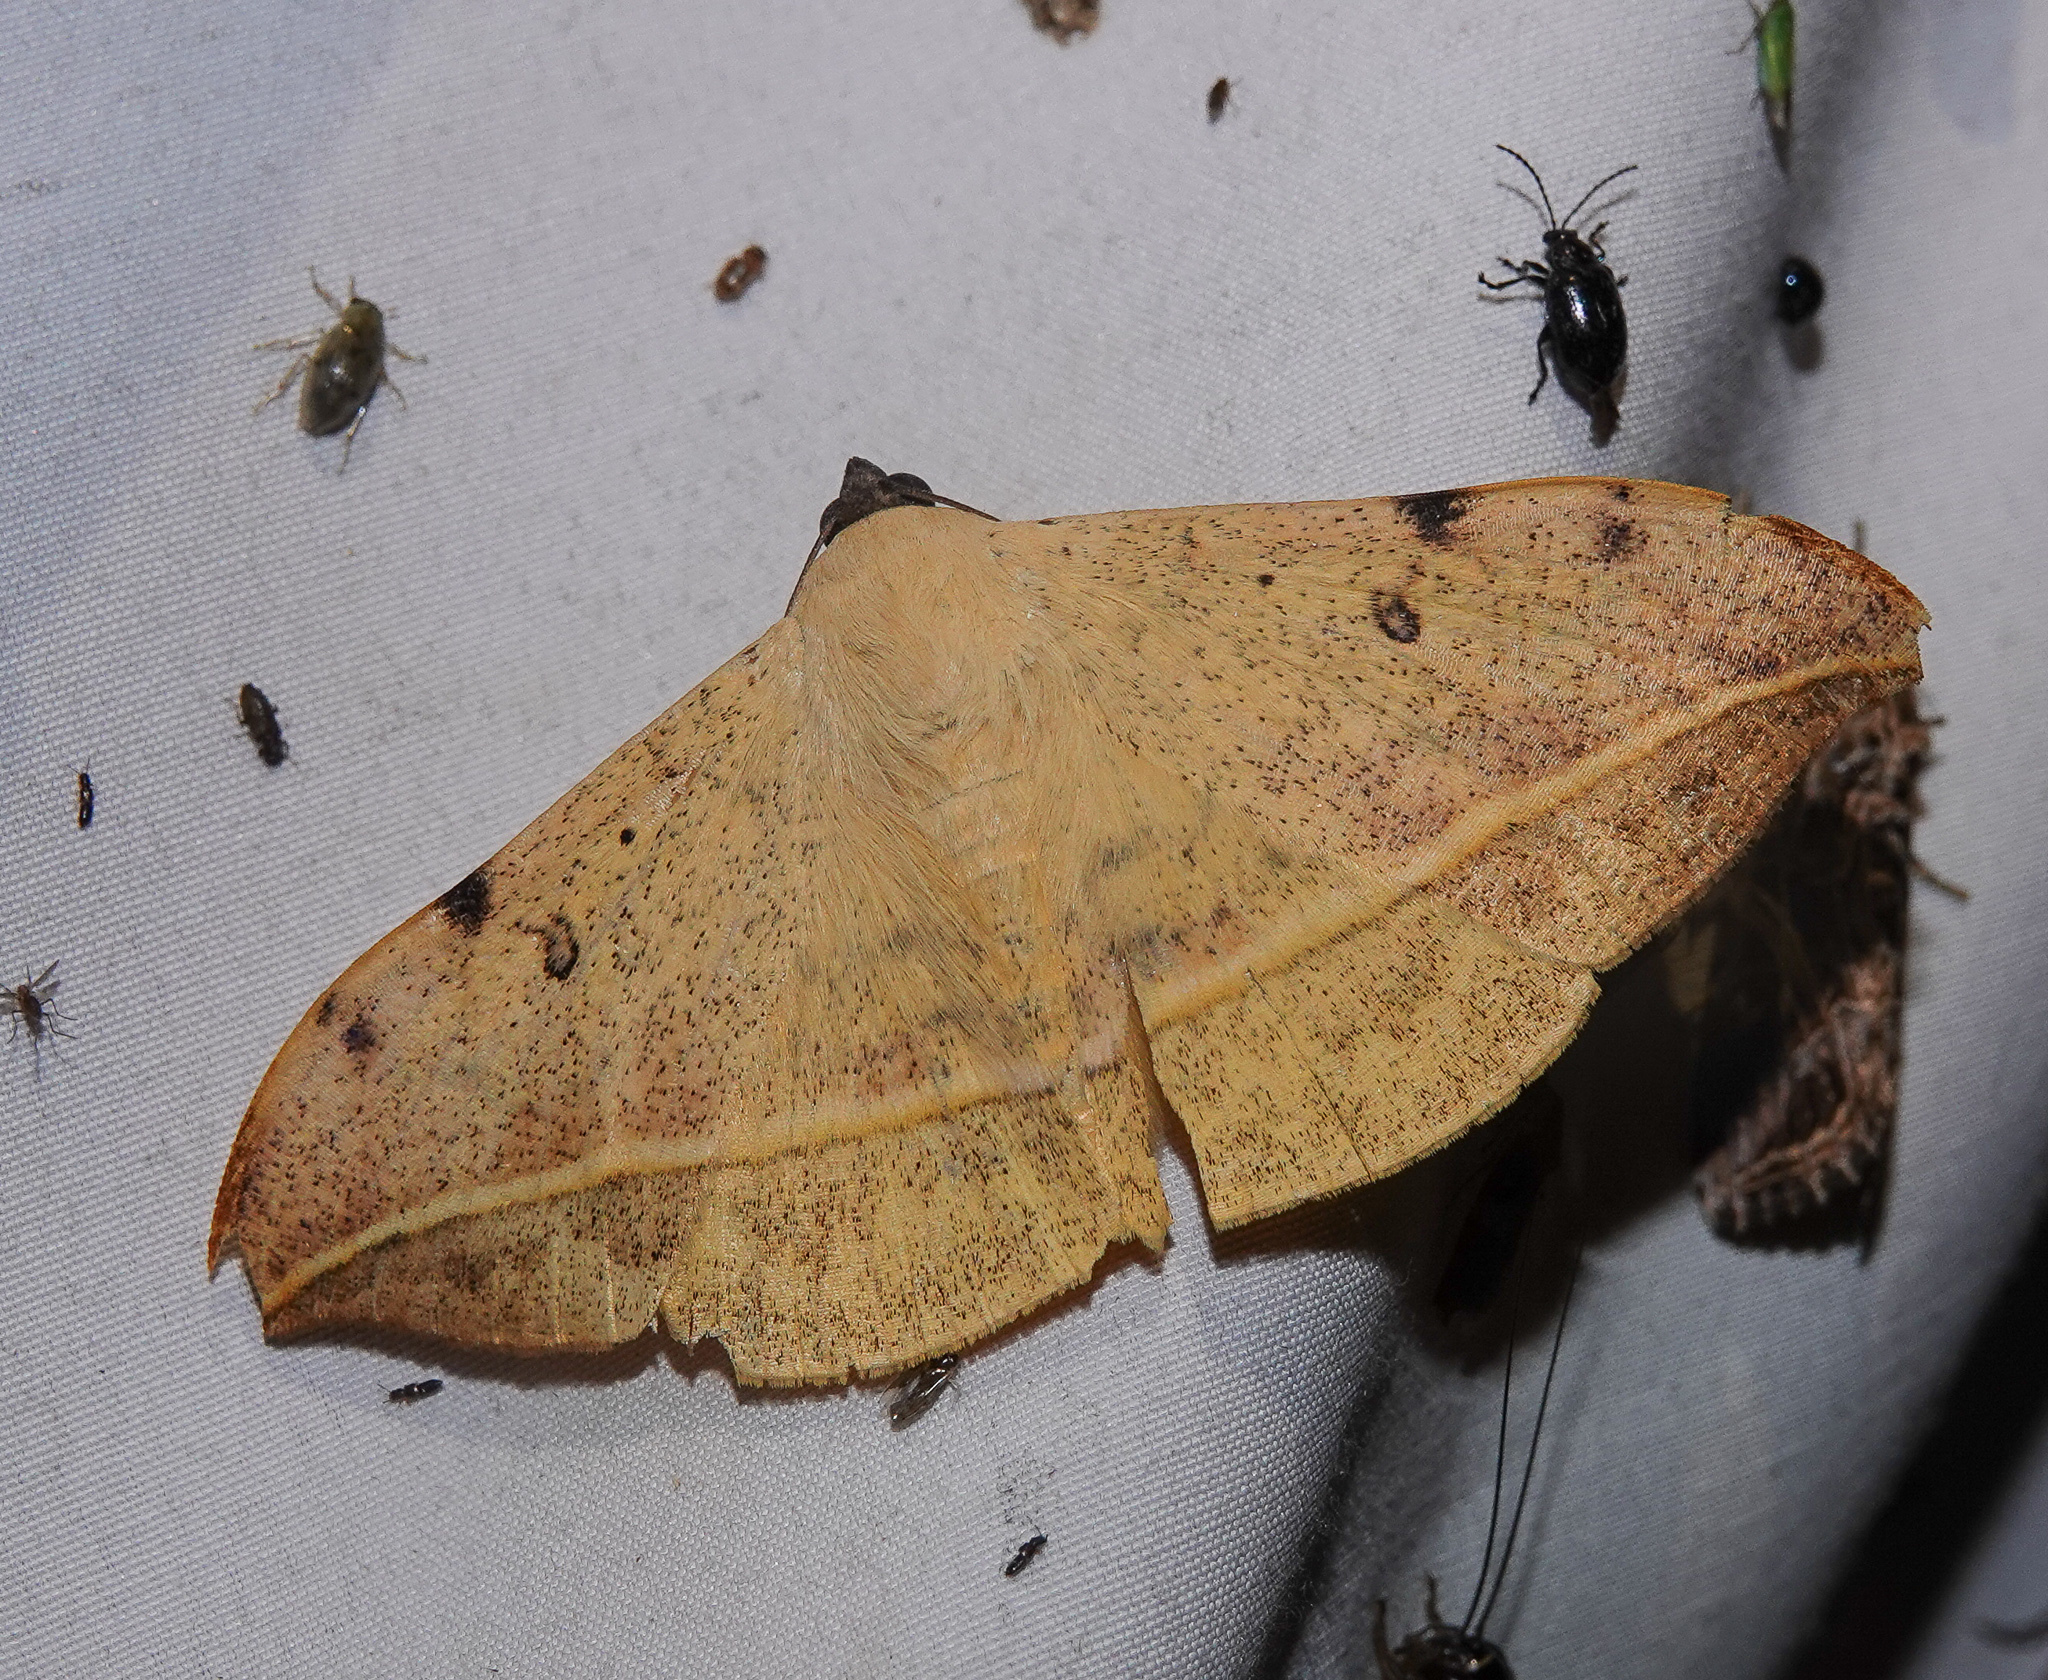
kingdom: Animalia
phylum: Arthropoda
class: Insecta
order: Lepidoptera
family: Erebidae
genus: Hamodes
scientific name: Hamodes propitia
